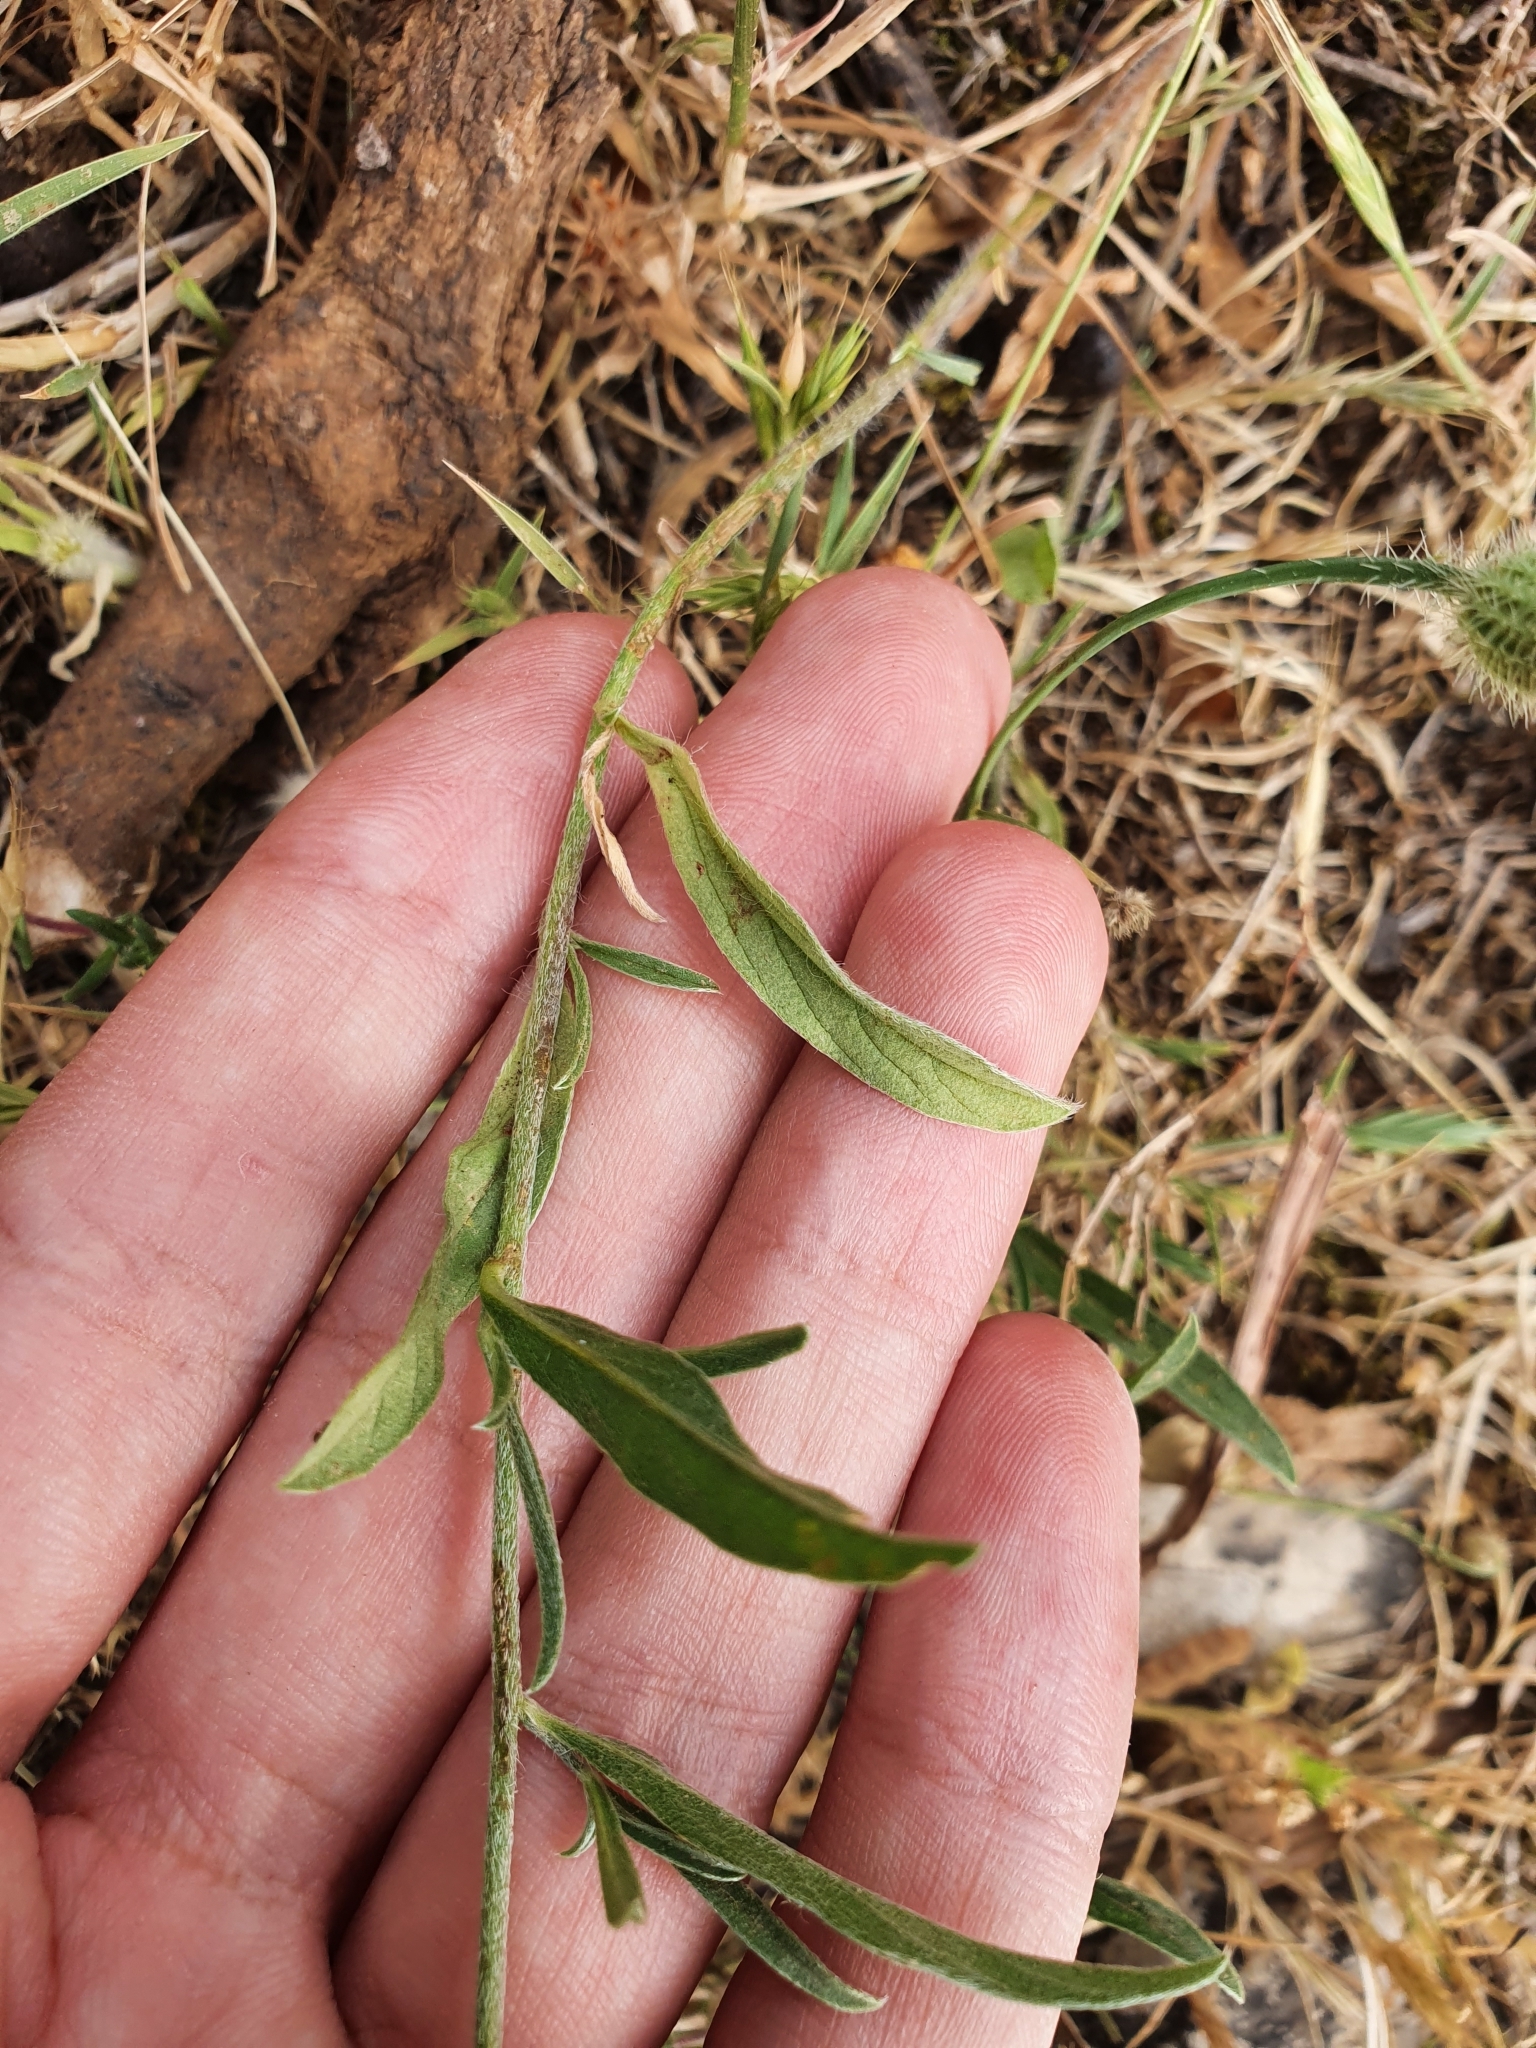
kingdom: Plantae
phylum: Tracheophyta
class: Magnoliopsida
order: Solanales
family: Convolvulaceae
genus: Convolvulus
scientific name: Convolvulus cantabrica
